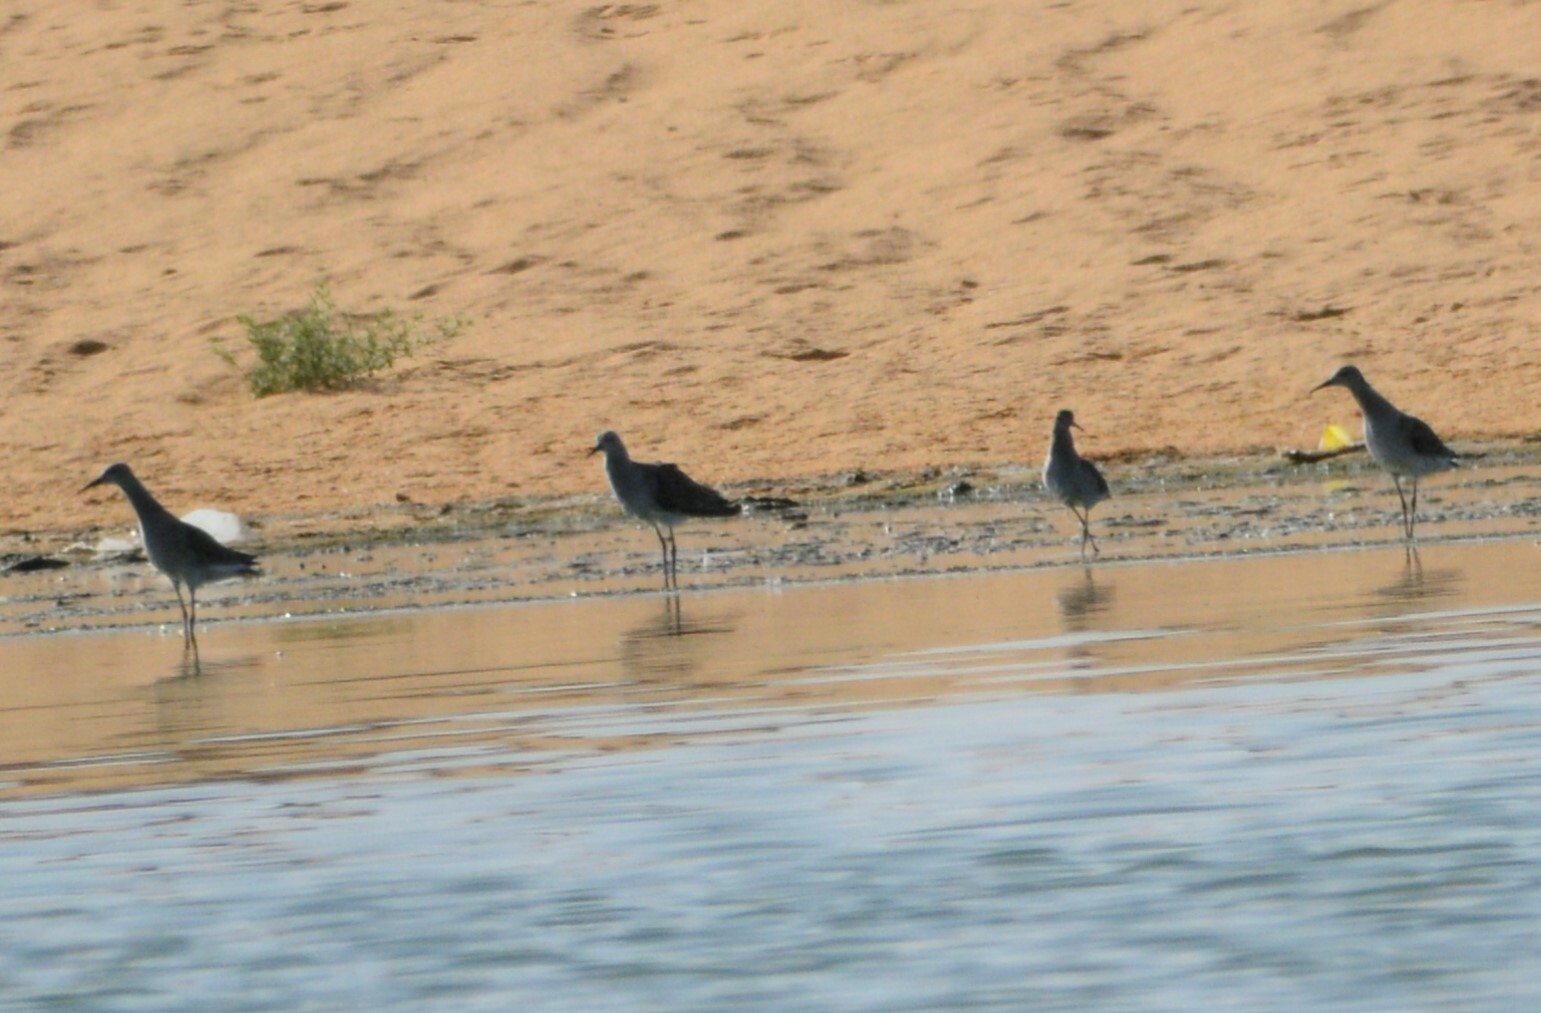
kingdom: Animalia
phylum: Chordata
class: Aves
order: Charadriiformes
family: Scolopacidae
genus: Calidris
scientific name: Calidris pugnax
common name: Ruff
